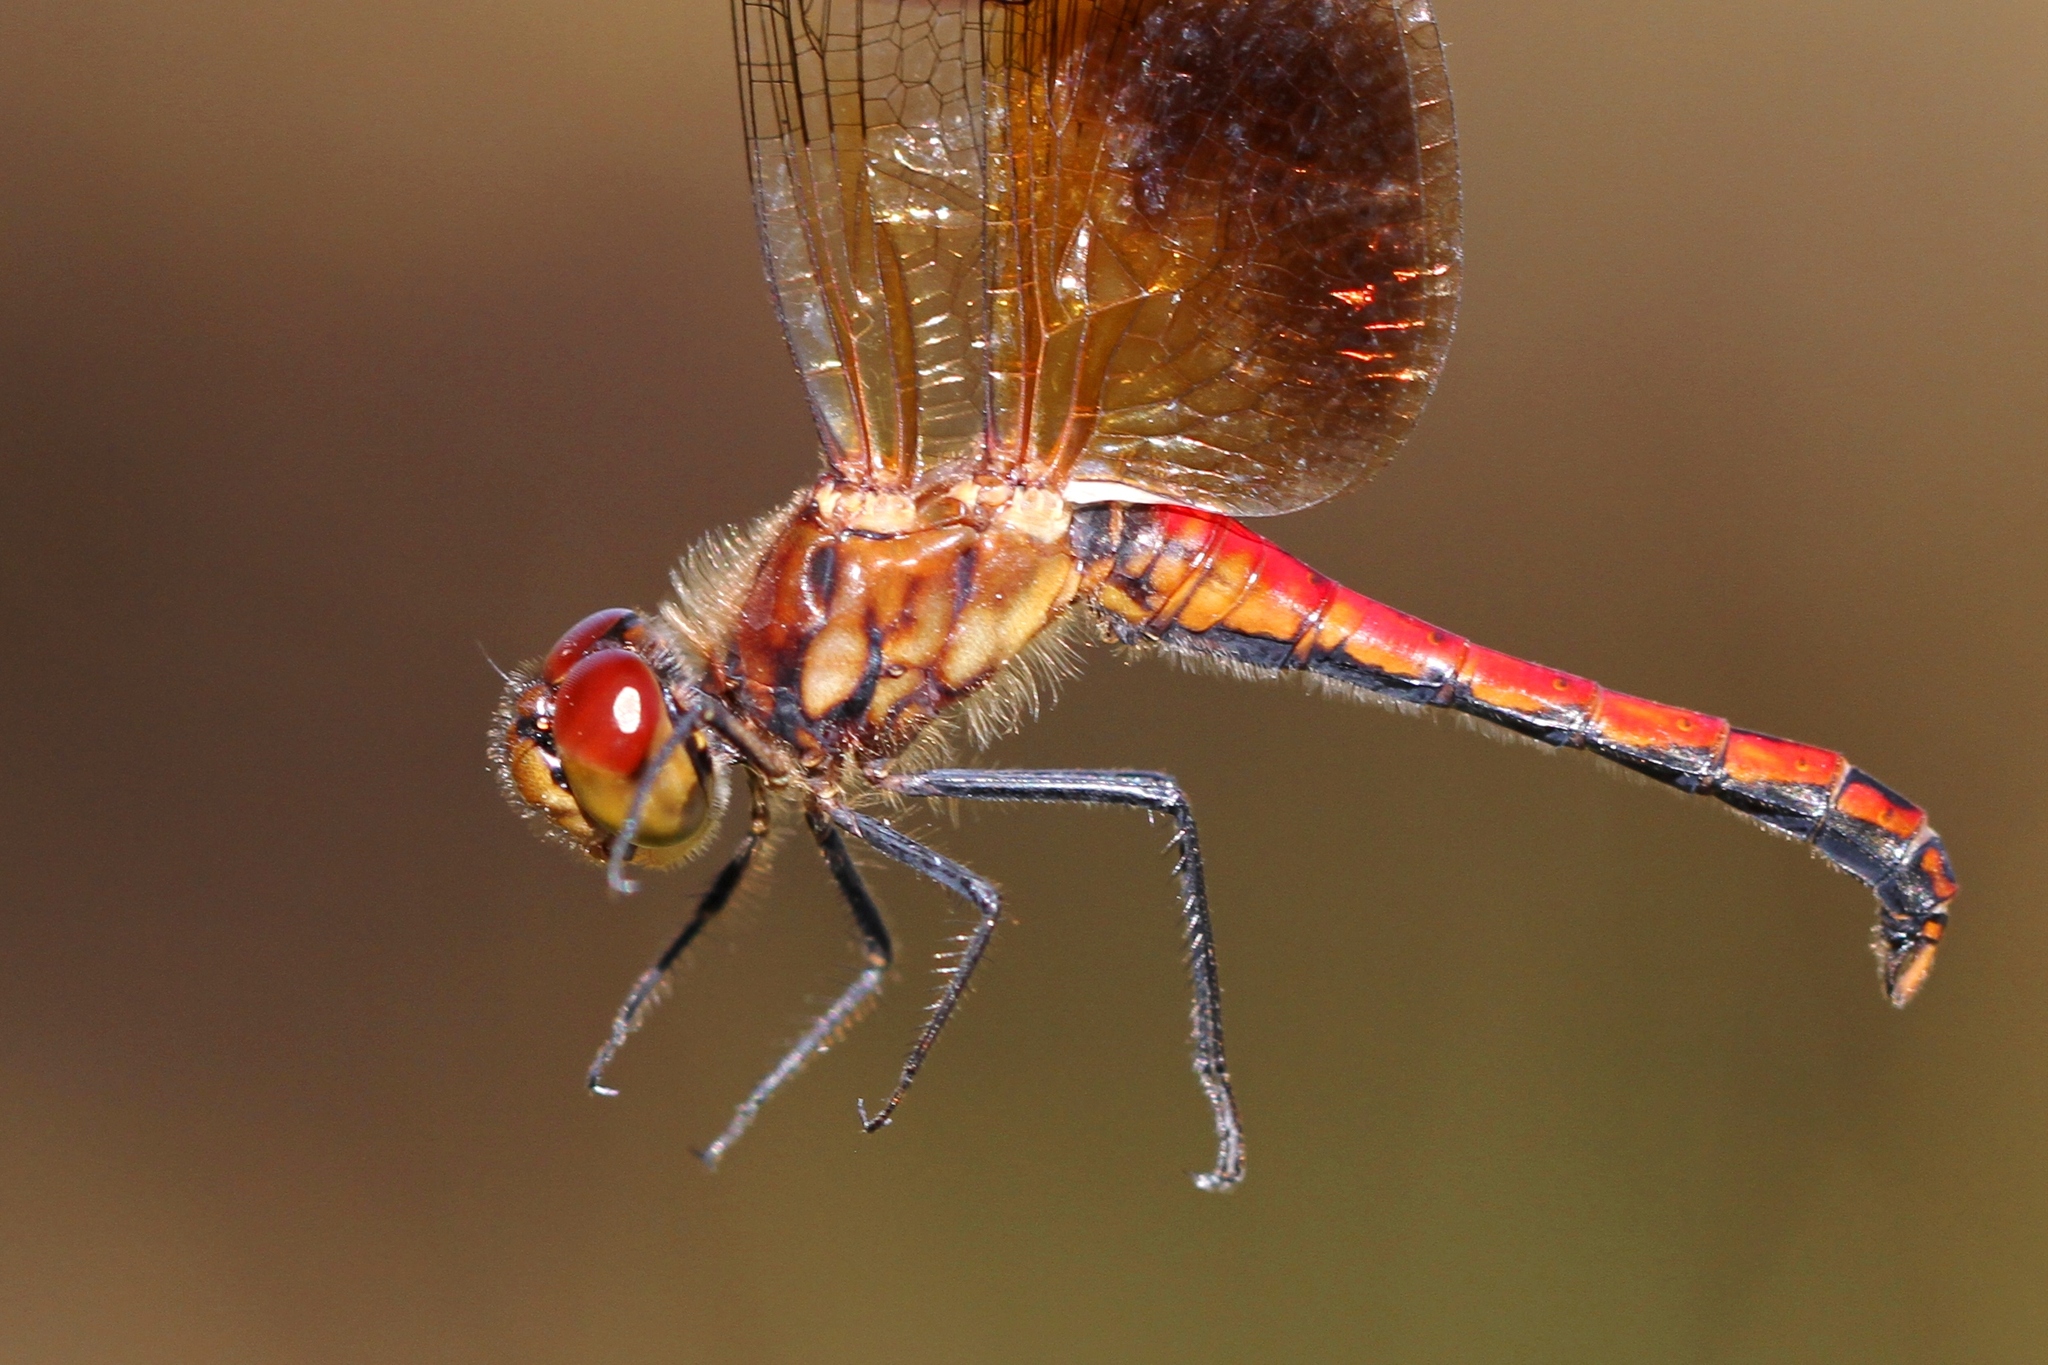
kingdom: Animalia
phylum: Arthropoda
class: Insecta
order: Odonata
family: Libellulidae
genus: Sympetrum
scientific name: Sympetrum semicinctum
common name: Band-winged meadowhawk
